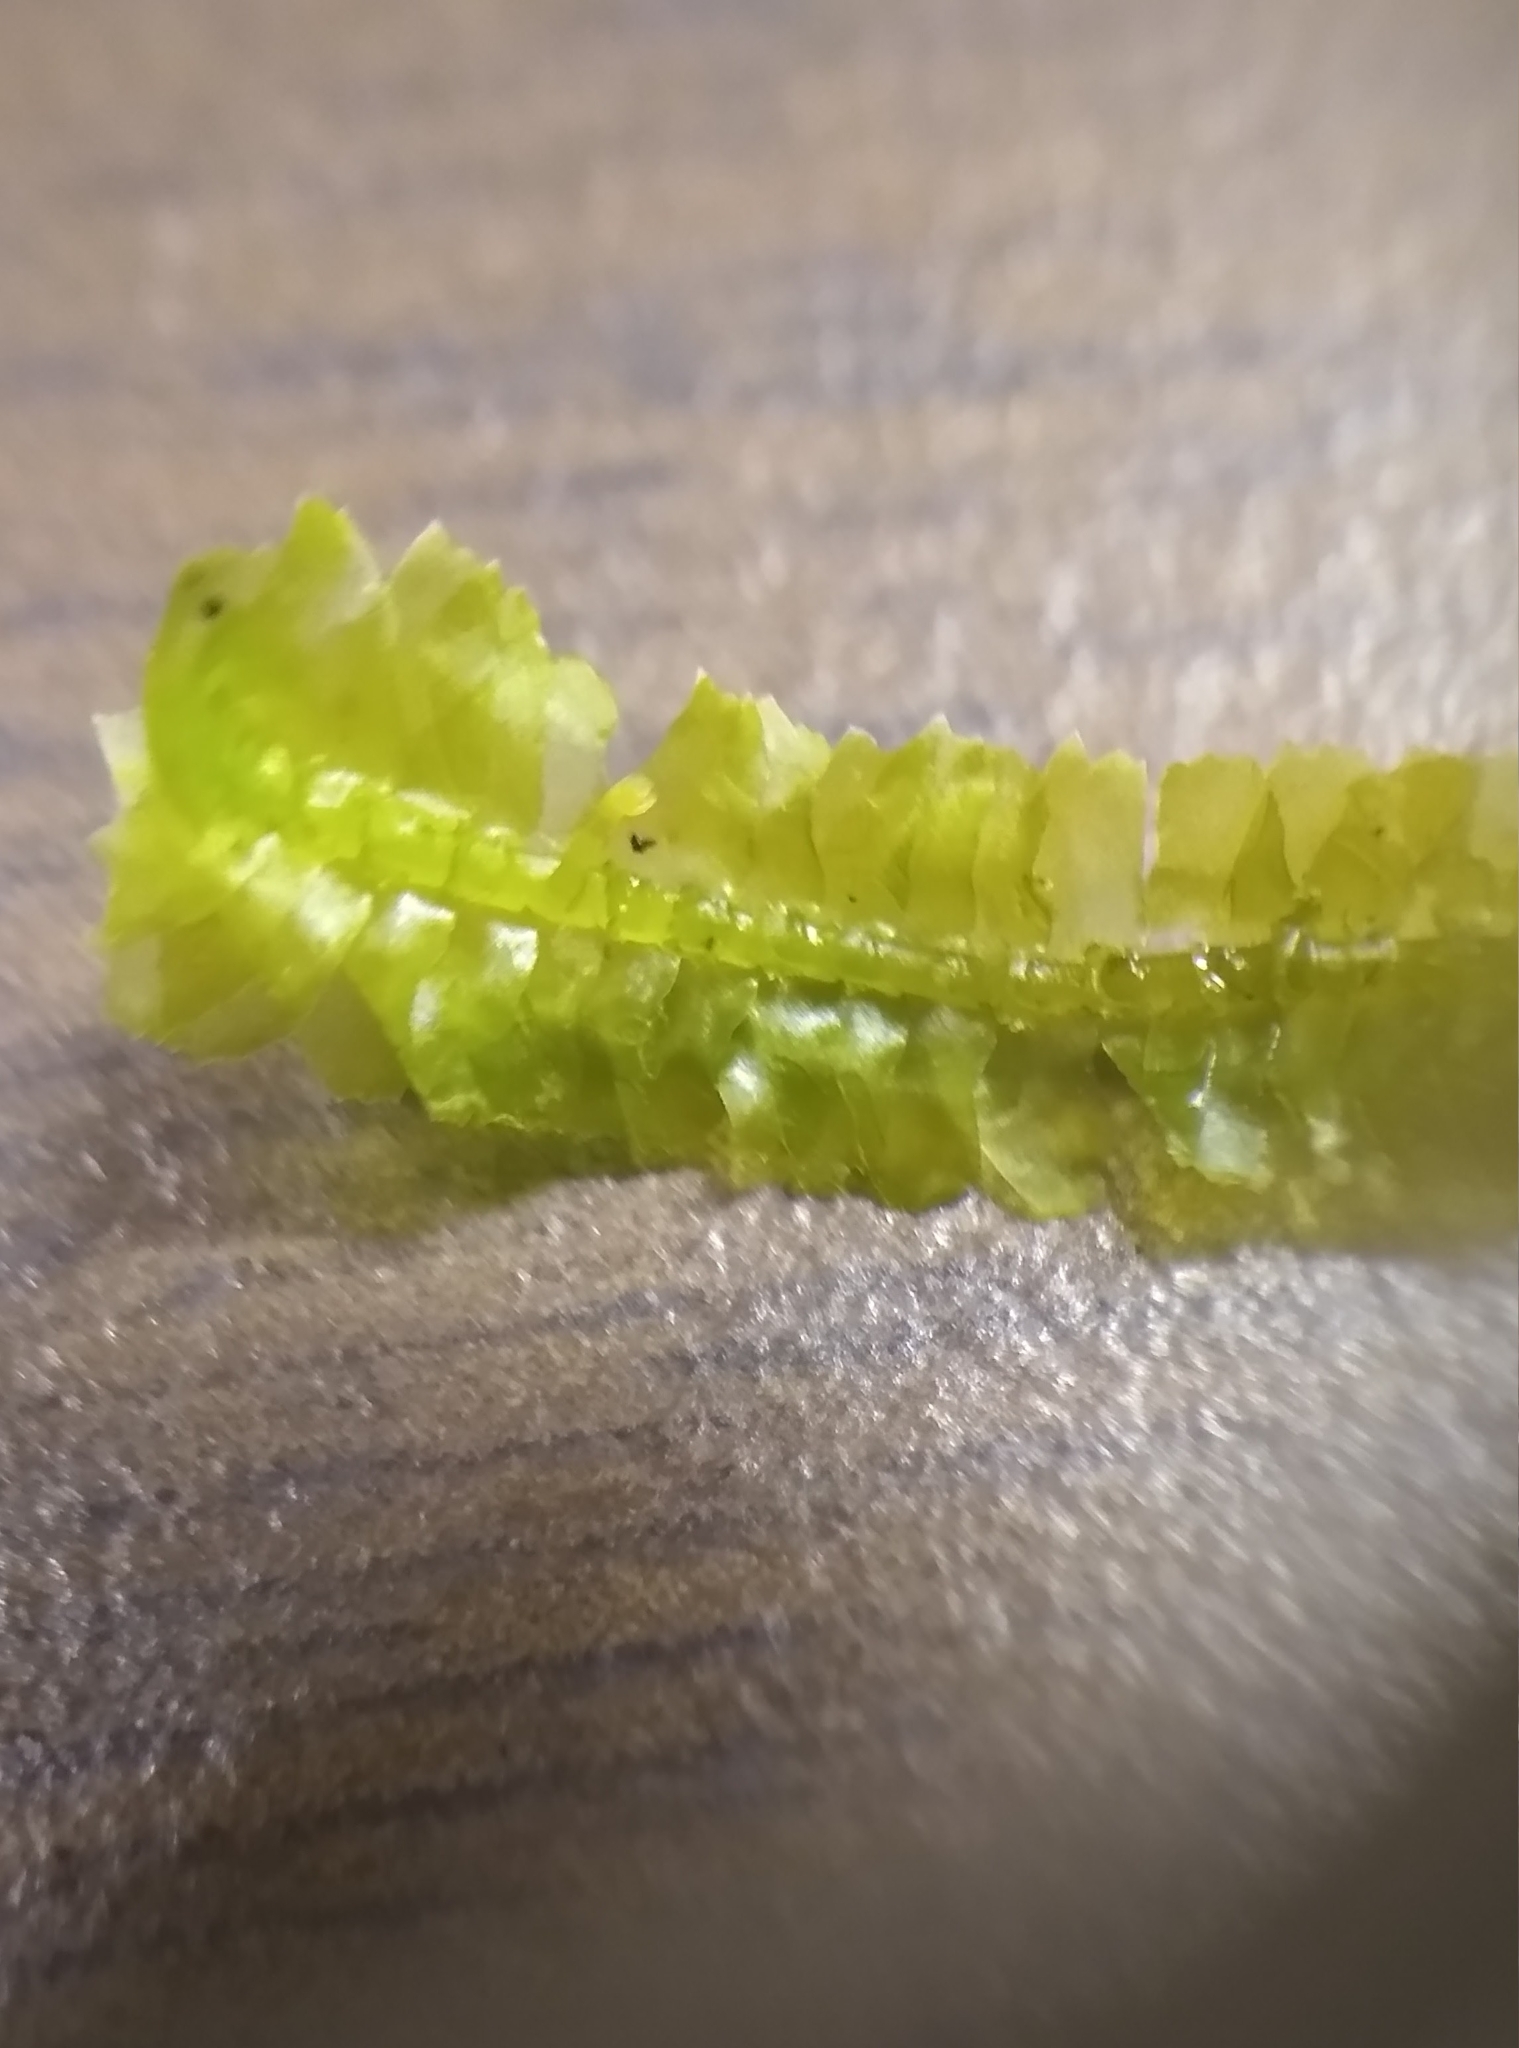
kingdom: Plantae
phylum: Marchantiophyta
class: Jungermanniopsida
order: Jungermanniales
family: Lepidoziaceae
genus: Bazzania
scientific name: Bazzania trilobata
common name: Three-lobed whipwort
